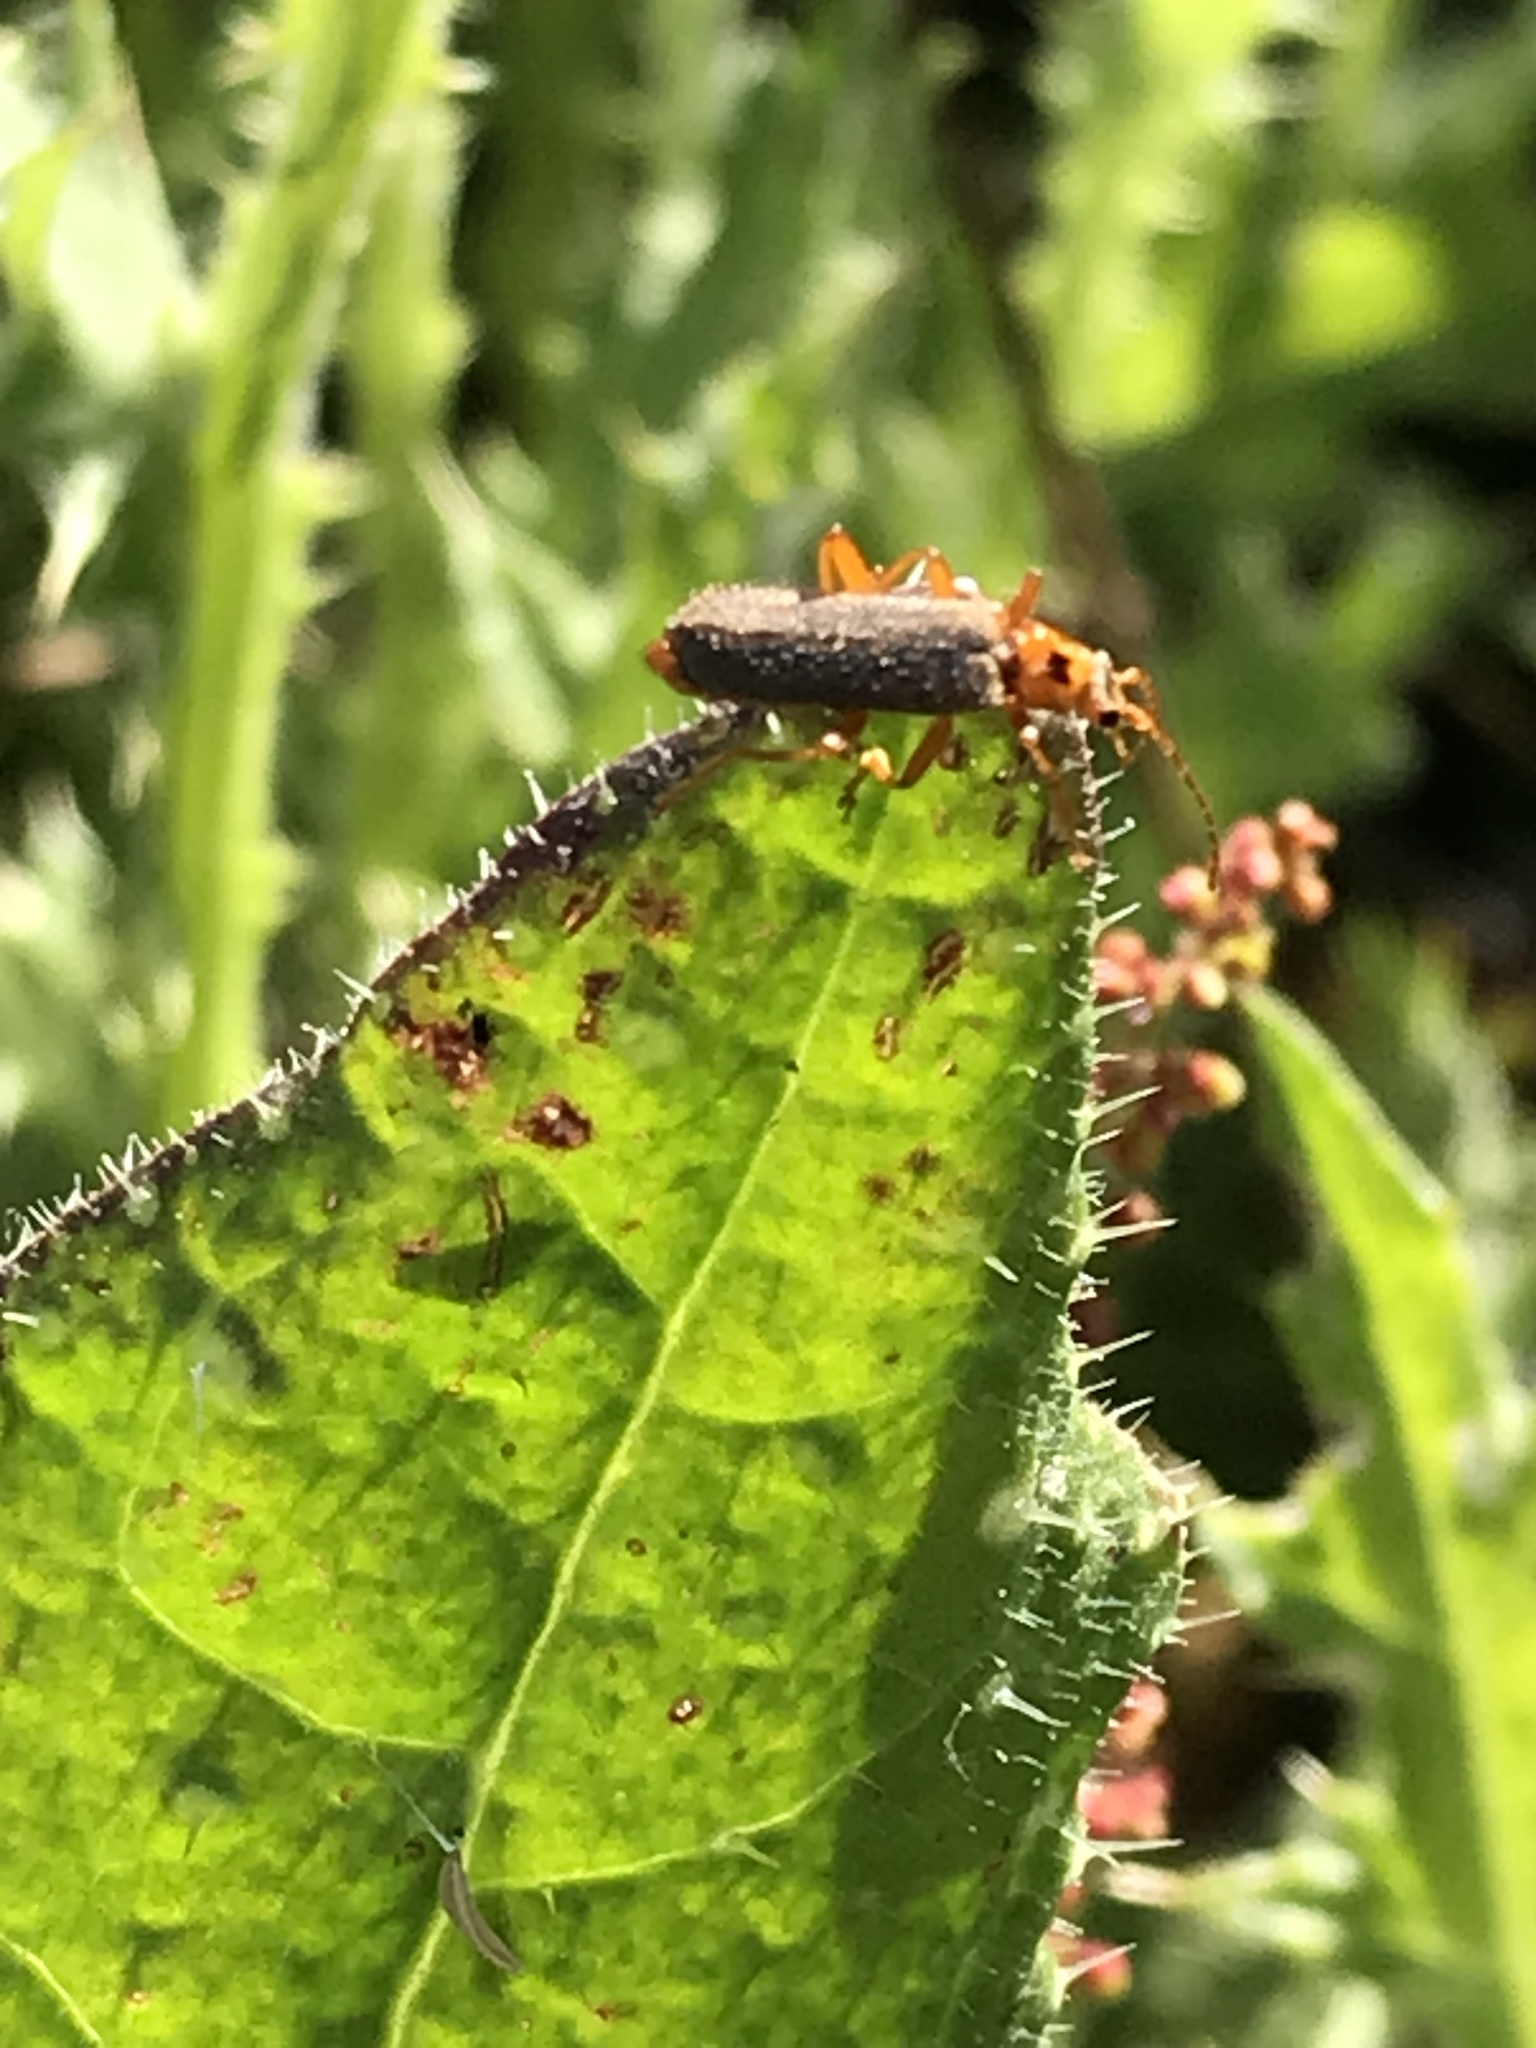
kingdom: Animalia
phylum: Arthropoda
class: Insecta
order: Coleoptera
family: Cantharidae
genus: Cultellunguis
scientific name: Cultellunguis americanus
